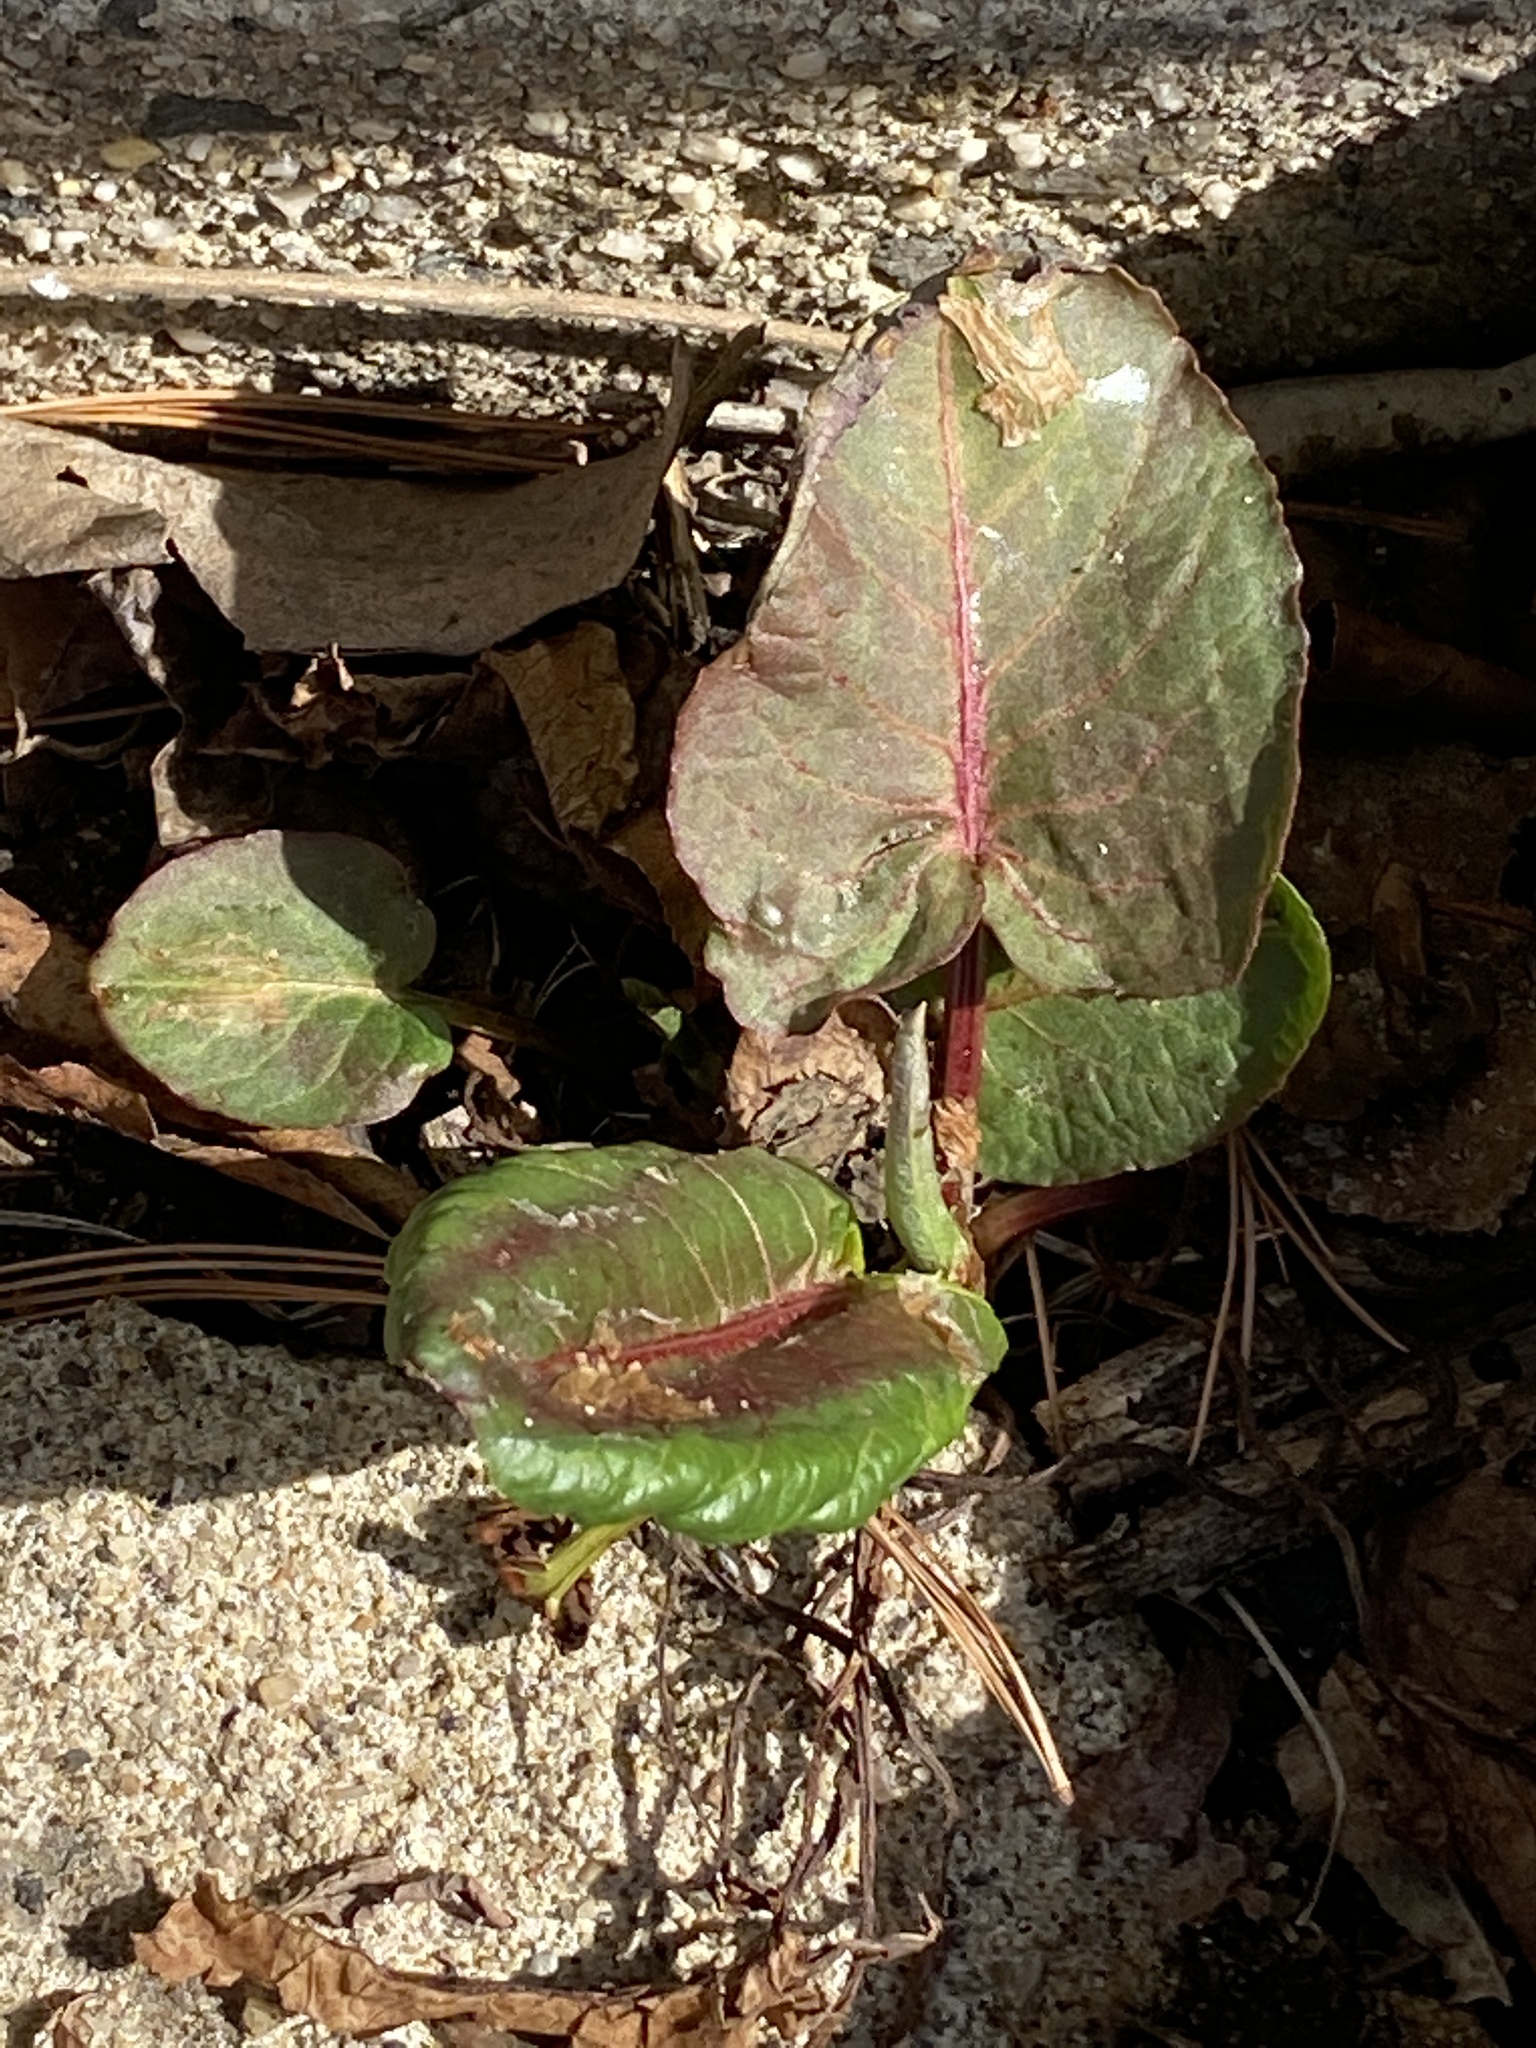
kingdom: Plantae
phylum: Tracheophyta
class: Magnoliopsida
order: Caryophyllales
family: Polygonaceae
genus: Rumex
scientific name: Rumex obtusifolius
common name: Bitter dock
